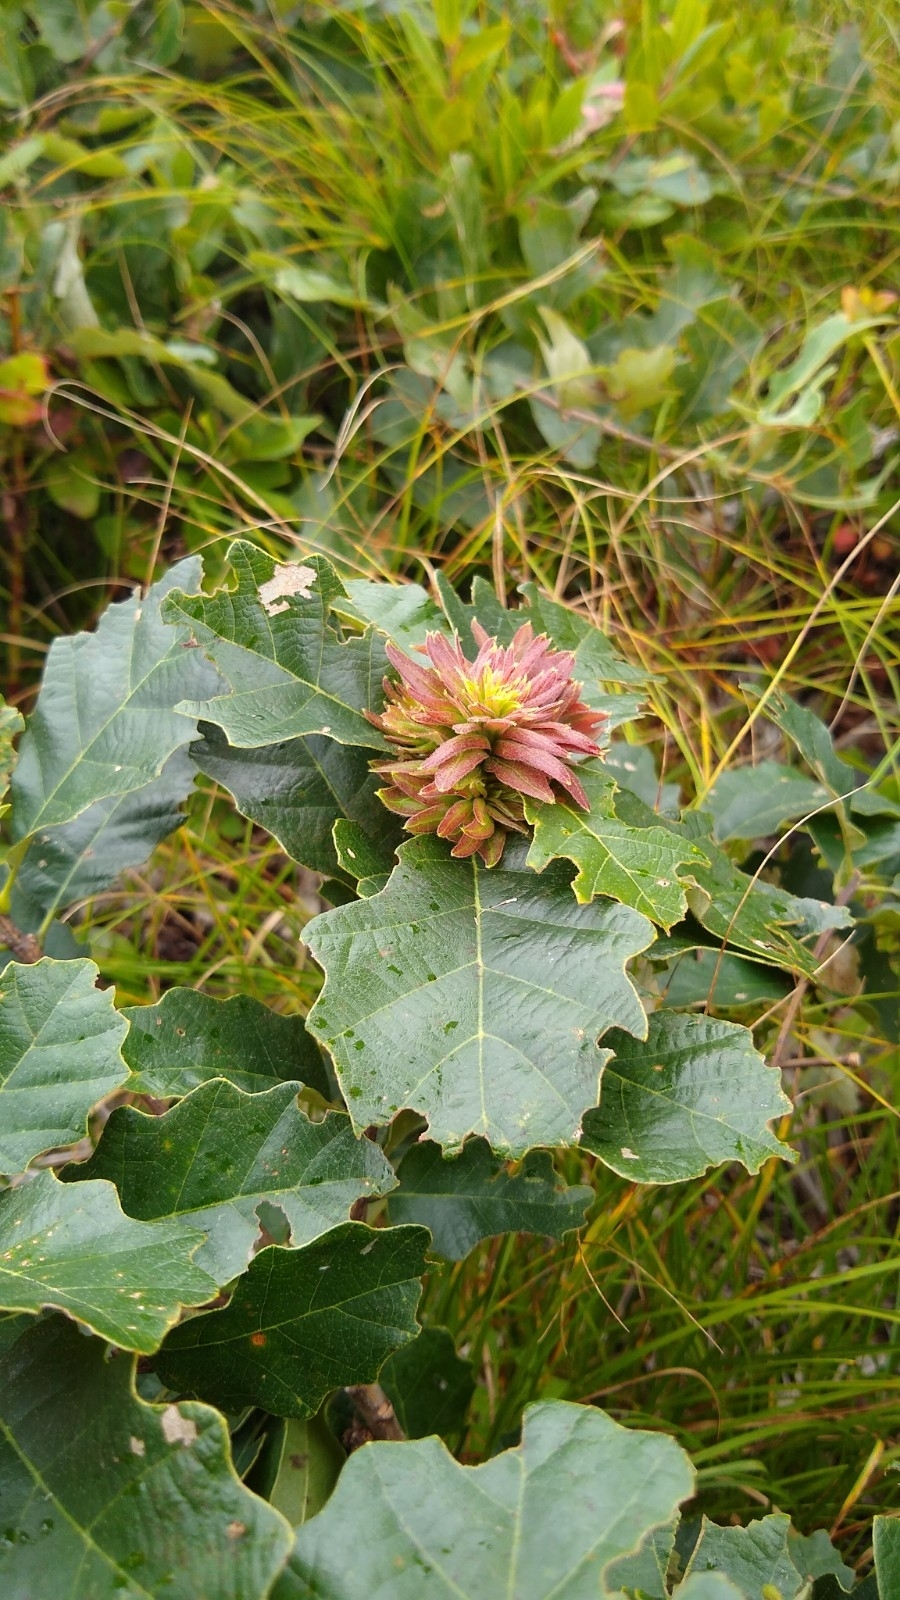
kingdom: Animalia
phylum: Arthropoda
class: Insecta
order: Hymenoptera
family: Cynipidae
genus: Andricus
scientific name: Andricus
